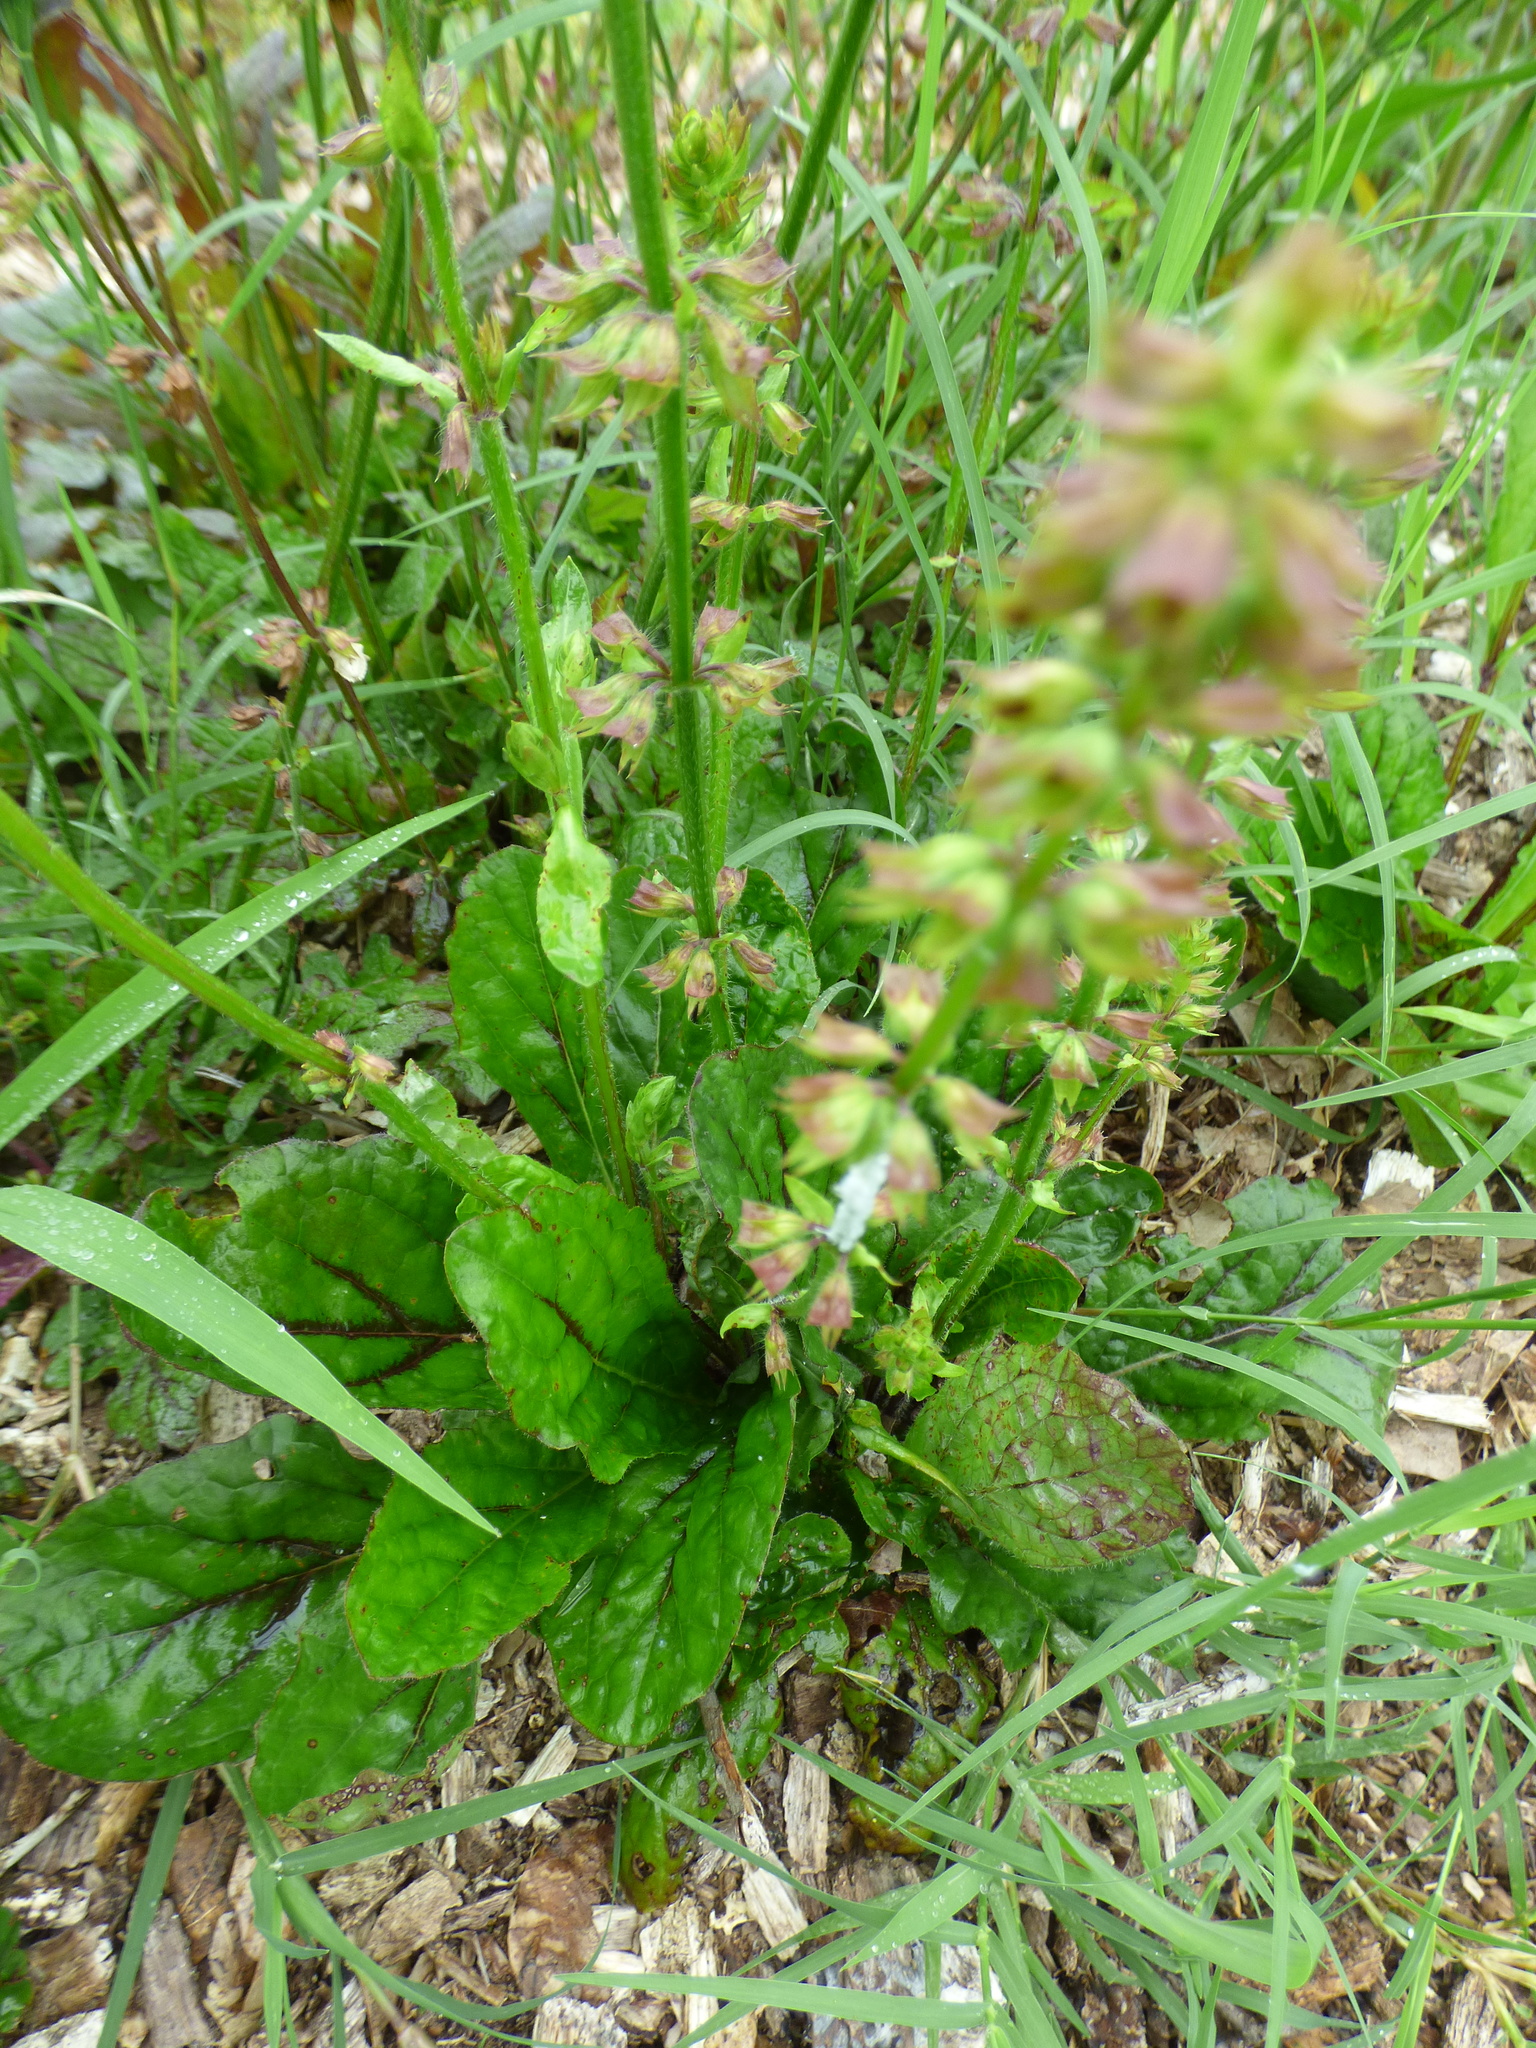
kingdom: Plantae
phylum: Tracheophyta
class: Magnoliopsida
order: Lamiales
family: Lamiaceae
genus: Salvia
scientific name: Salvia lyrata
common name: Cancerweed
